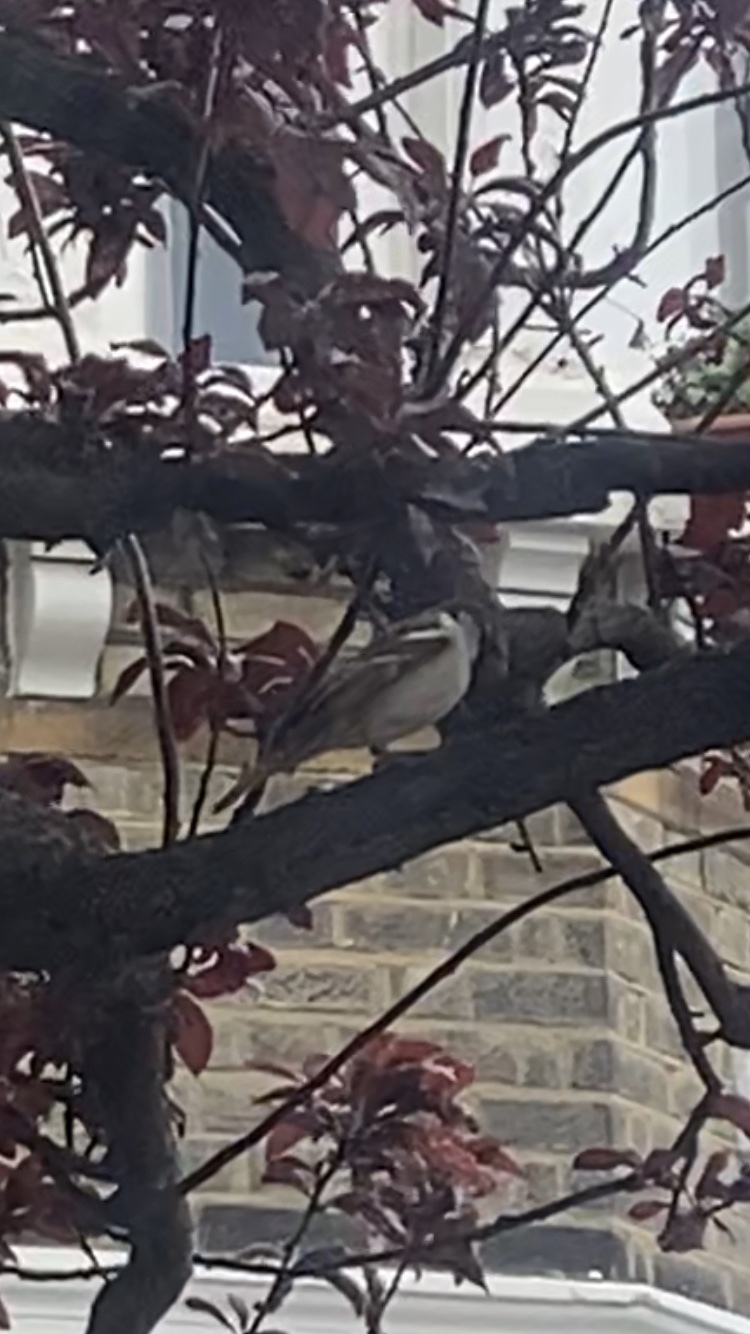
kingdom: Animalia
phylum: Chordata
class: Aves
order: Passeriformes
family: Passeridae
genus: Passer
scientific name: Passer domesticus
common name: House sparrow
